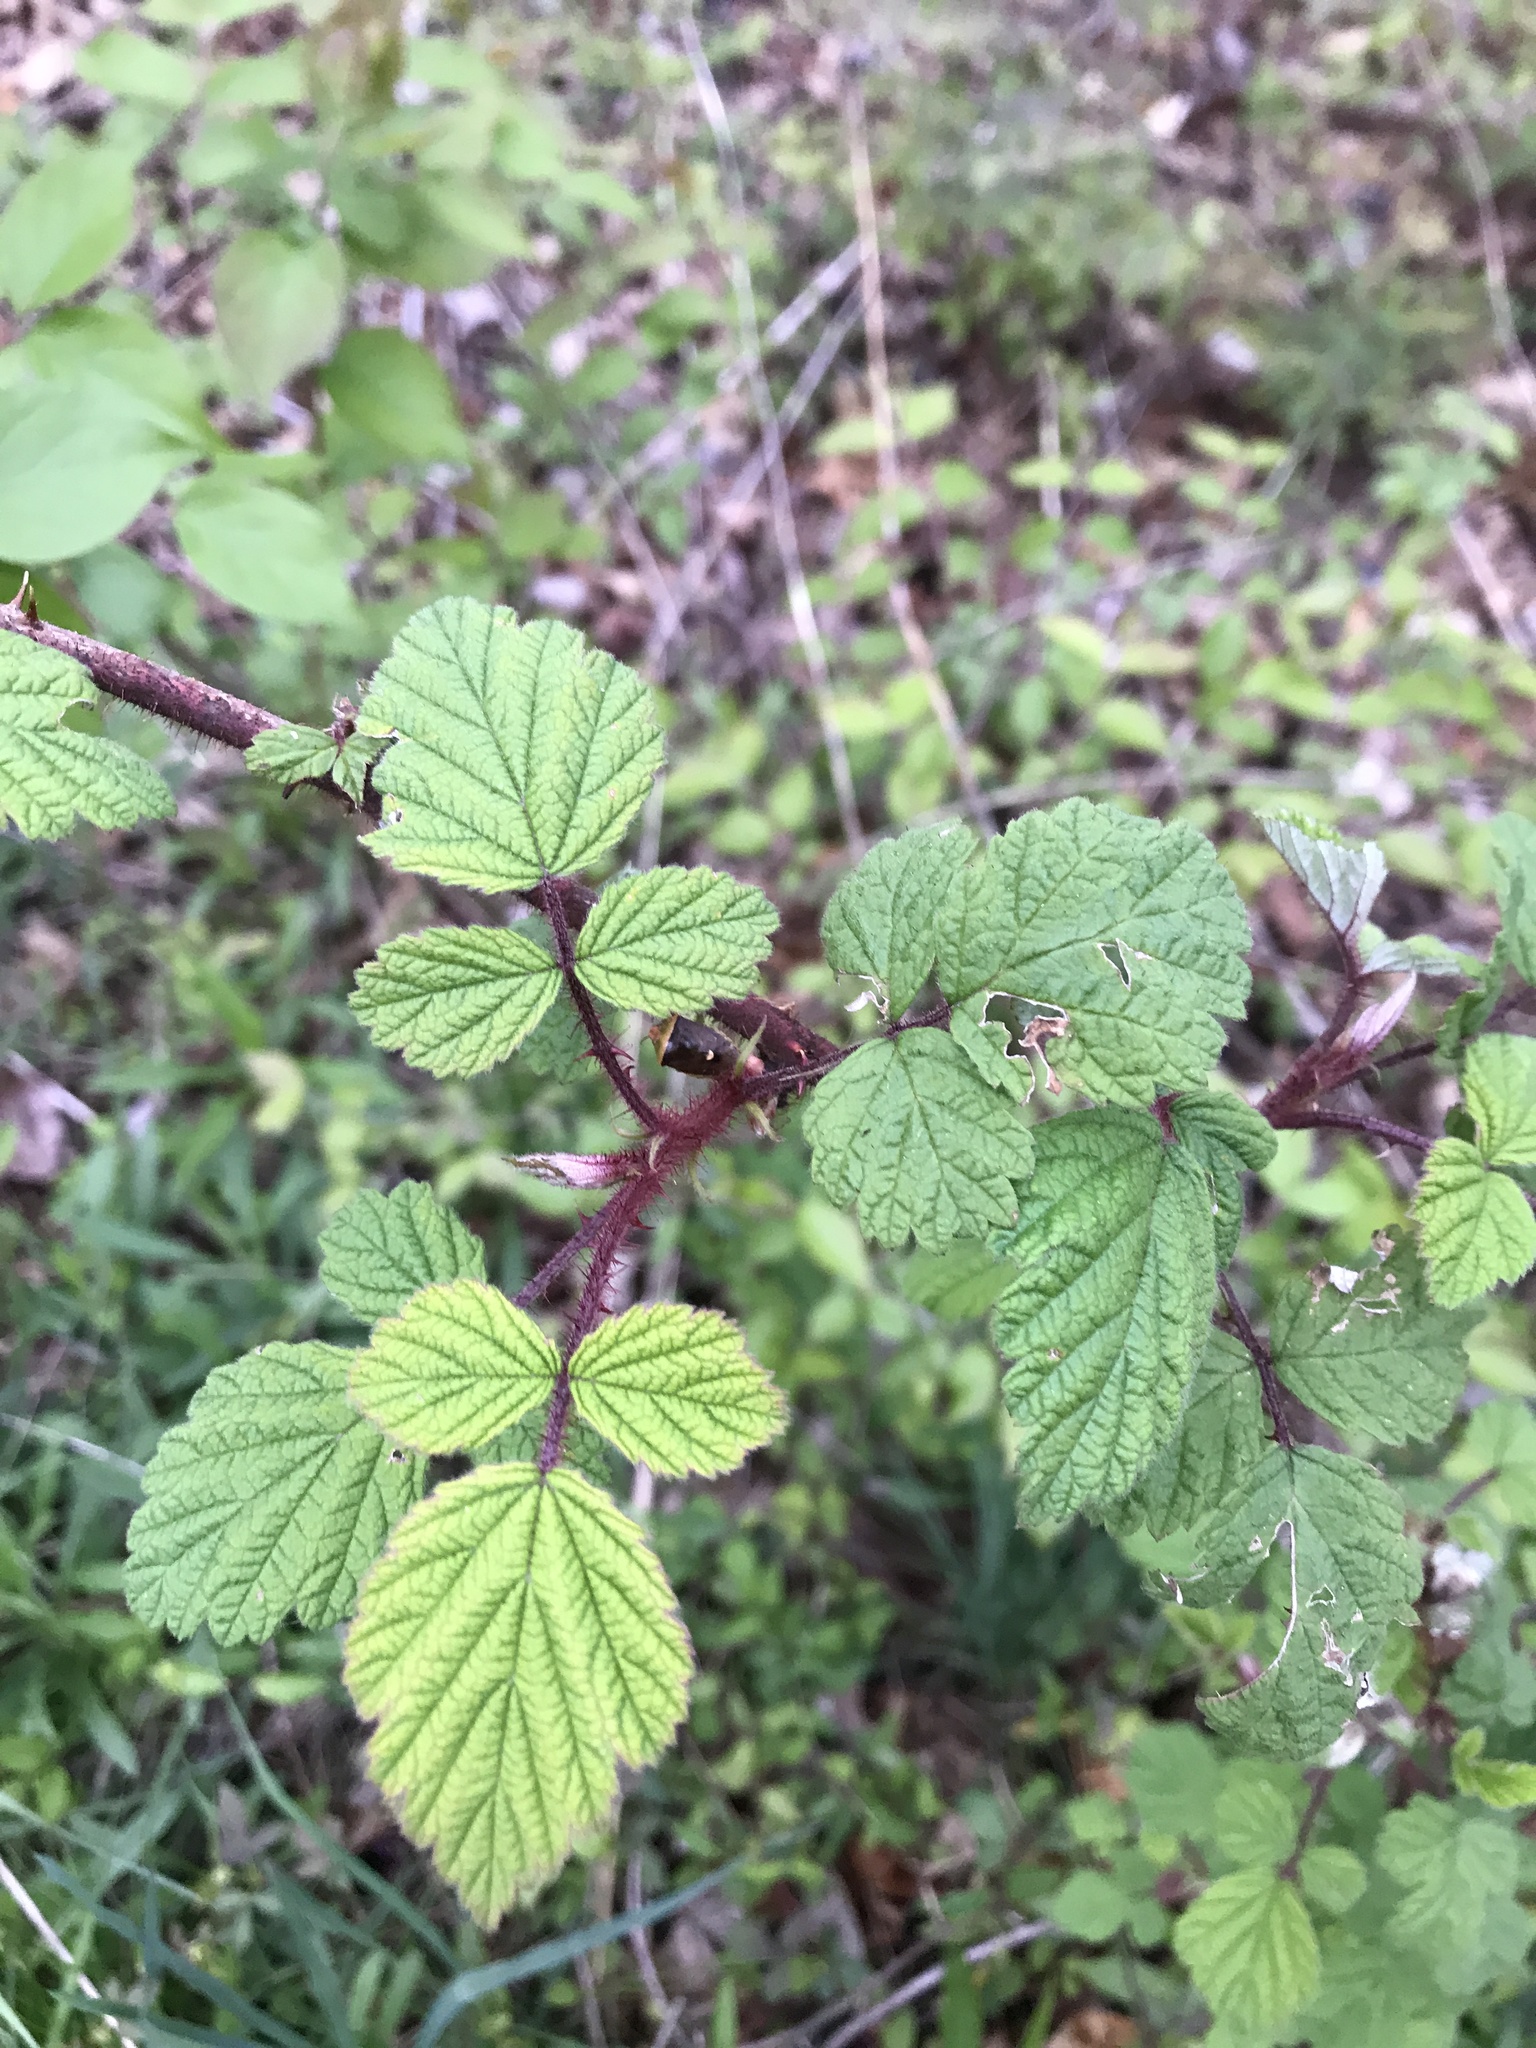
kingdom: Plantae
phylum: Tracheophyta
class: Magnoliopsida
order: Rosales
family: Rosaceae
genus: Rubus
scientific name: Rubus phoenicolasius
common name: Japanese wineberry
